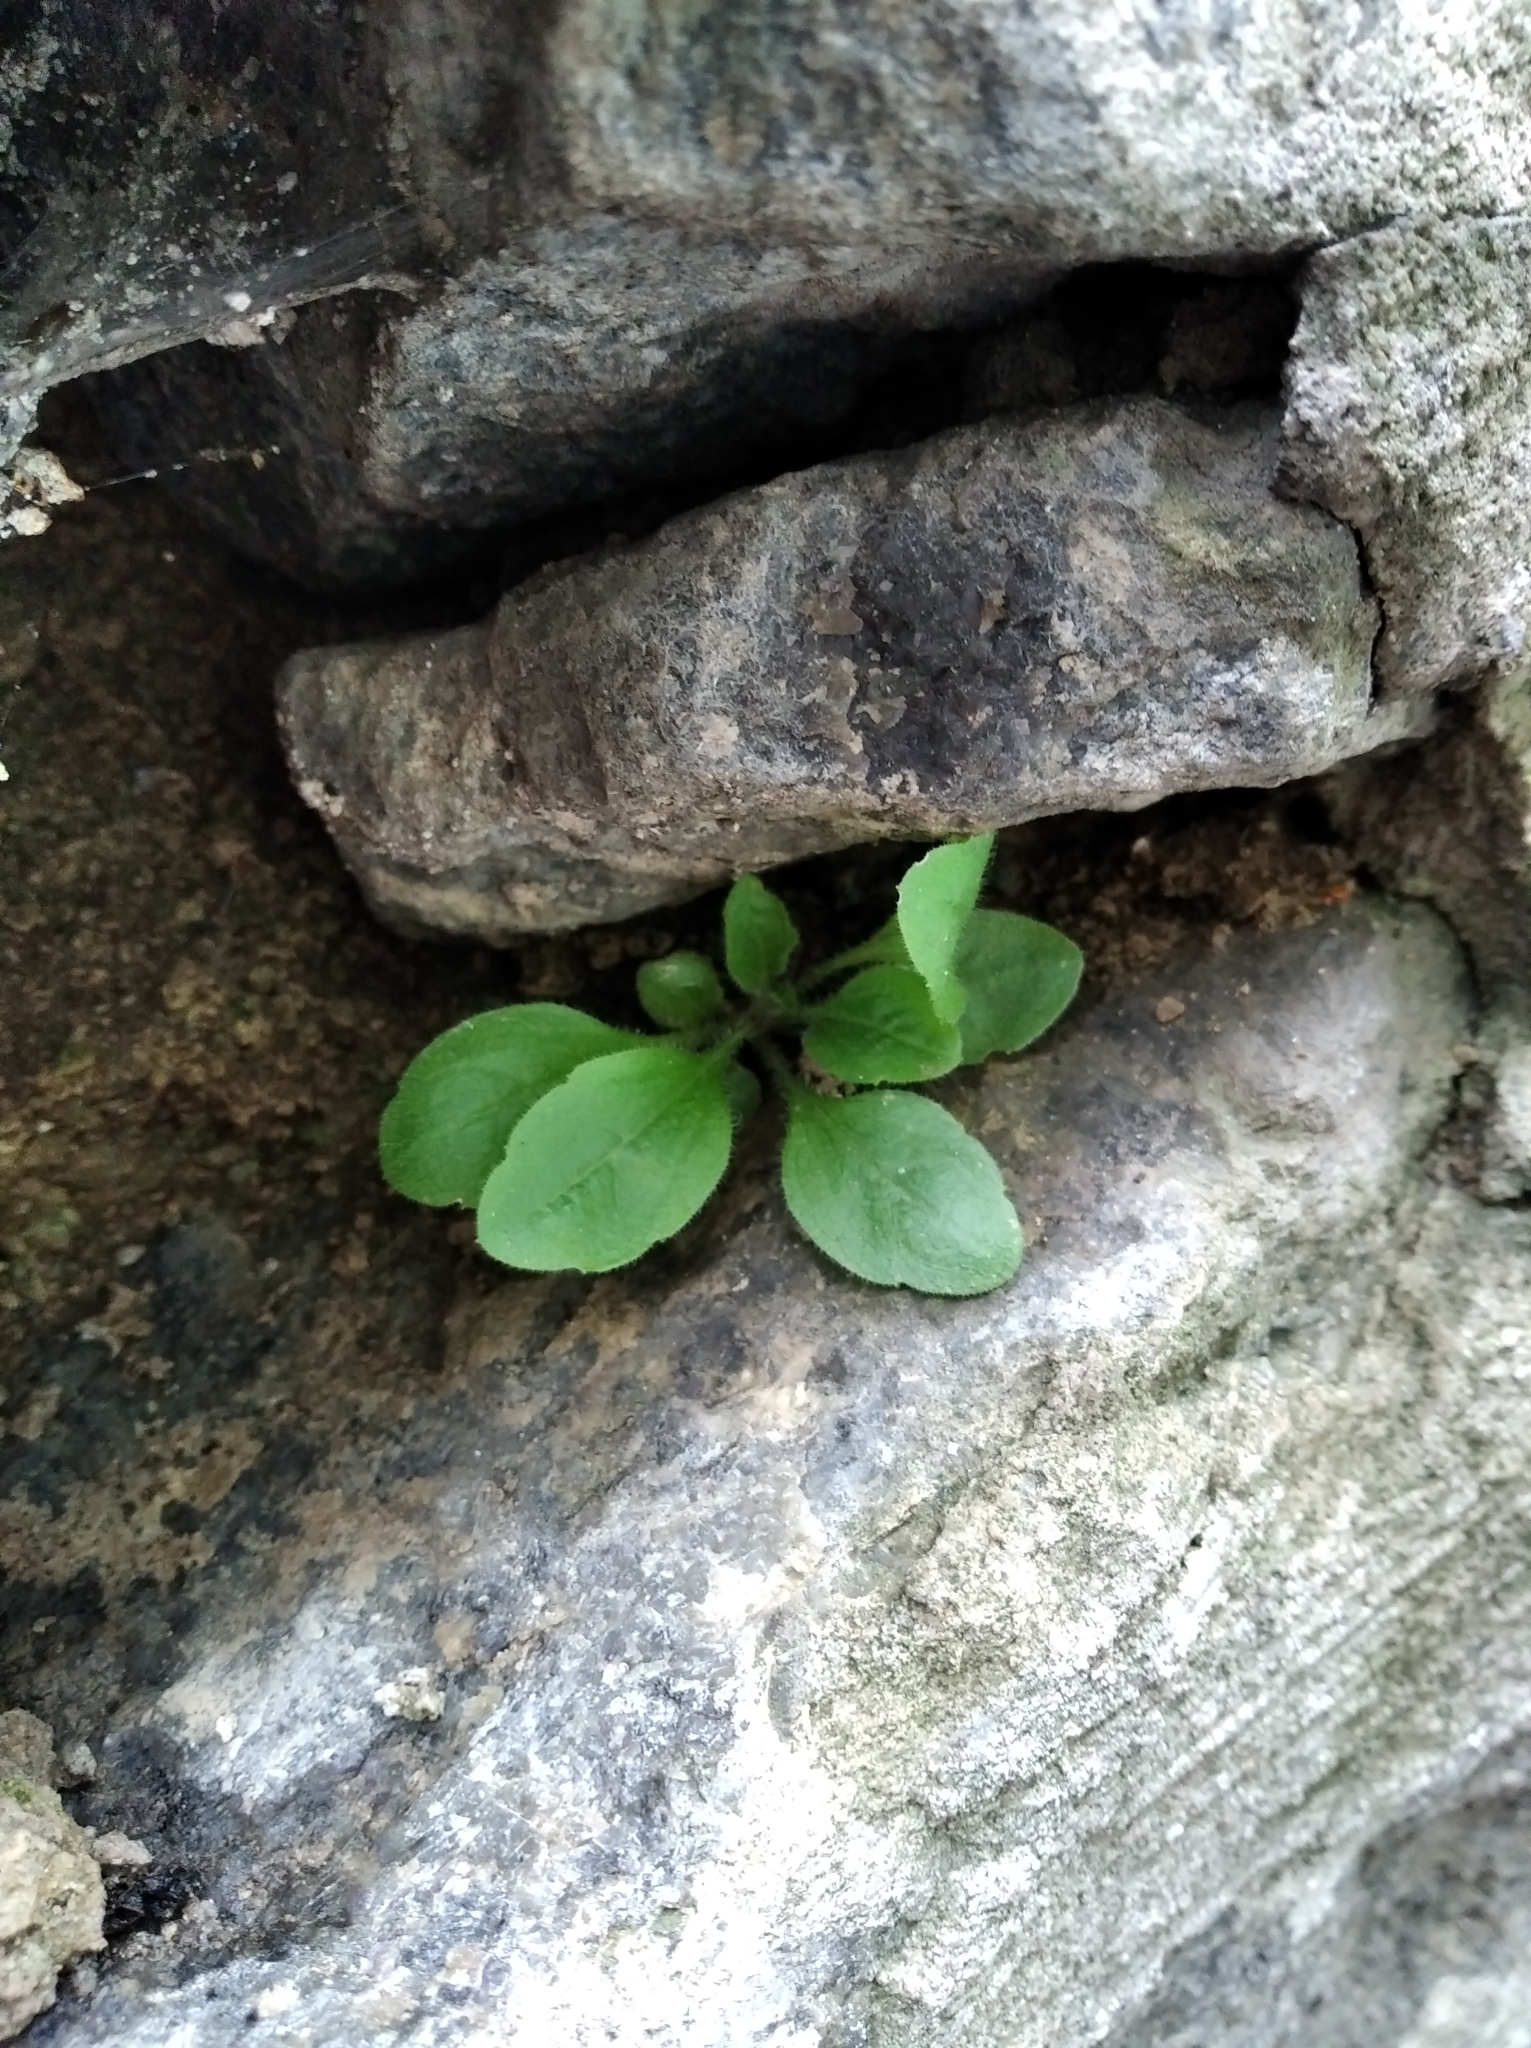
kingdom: Plantae
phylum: Tracheophyta
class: Magnoliopsida
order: Asterales
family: Asteraceae
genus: Erigeron
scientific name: Erigeron annuus
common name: Tall fleabane
